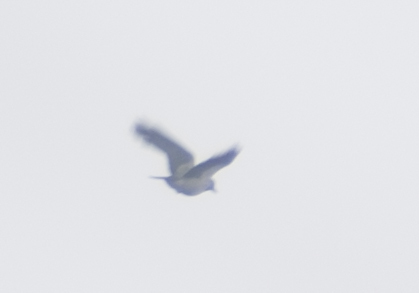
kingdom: Animalia
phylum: Chordata
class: Aves
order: Passeriformes
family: Corvidae
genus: Corvus
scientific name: Corvus cornix
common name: Hooded crow
